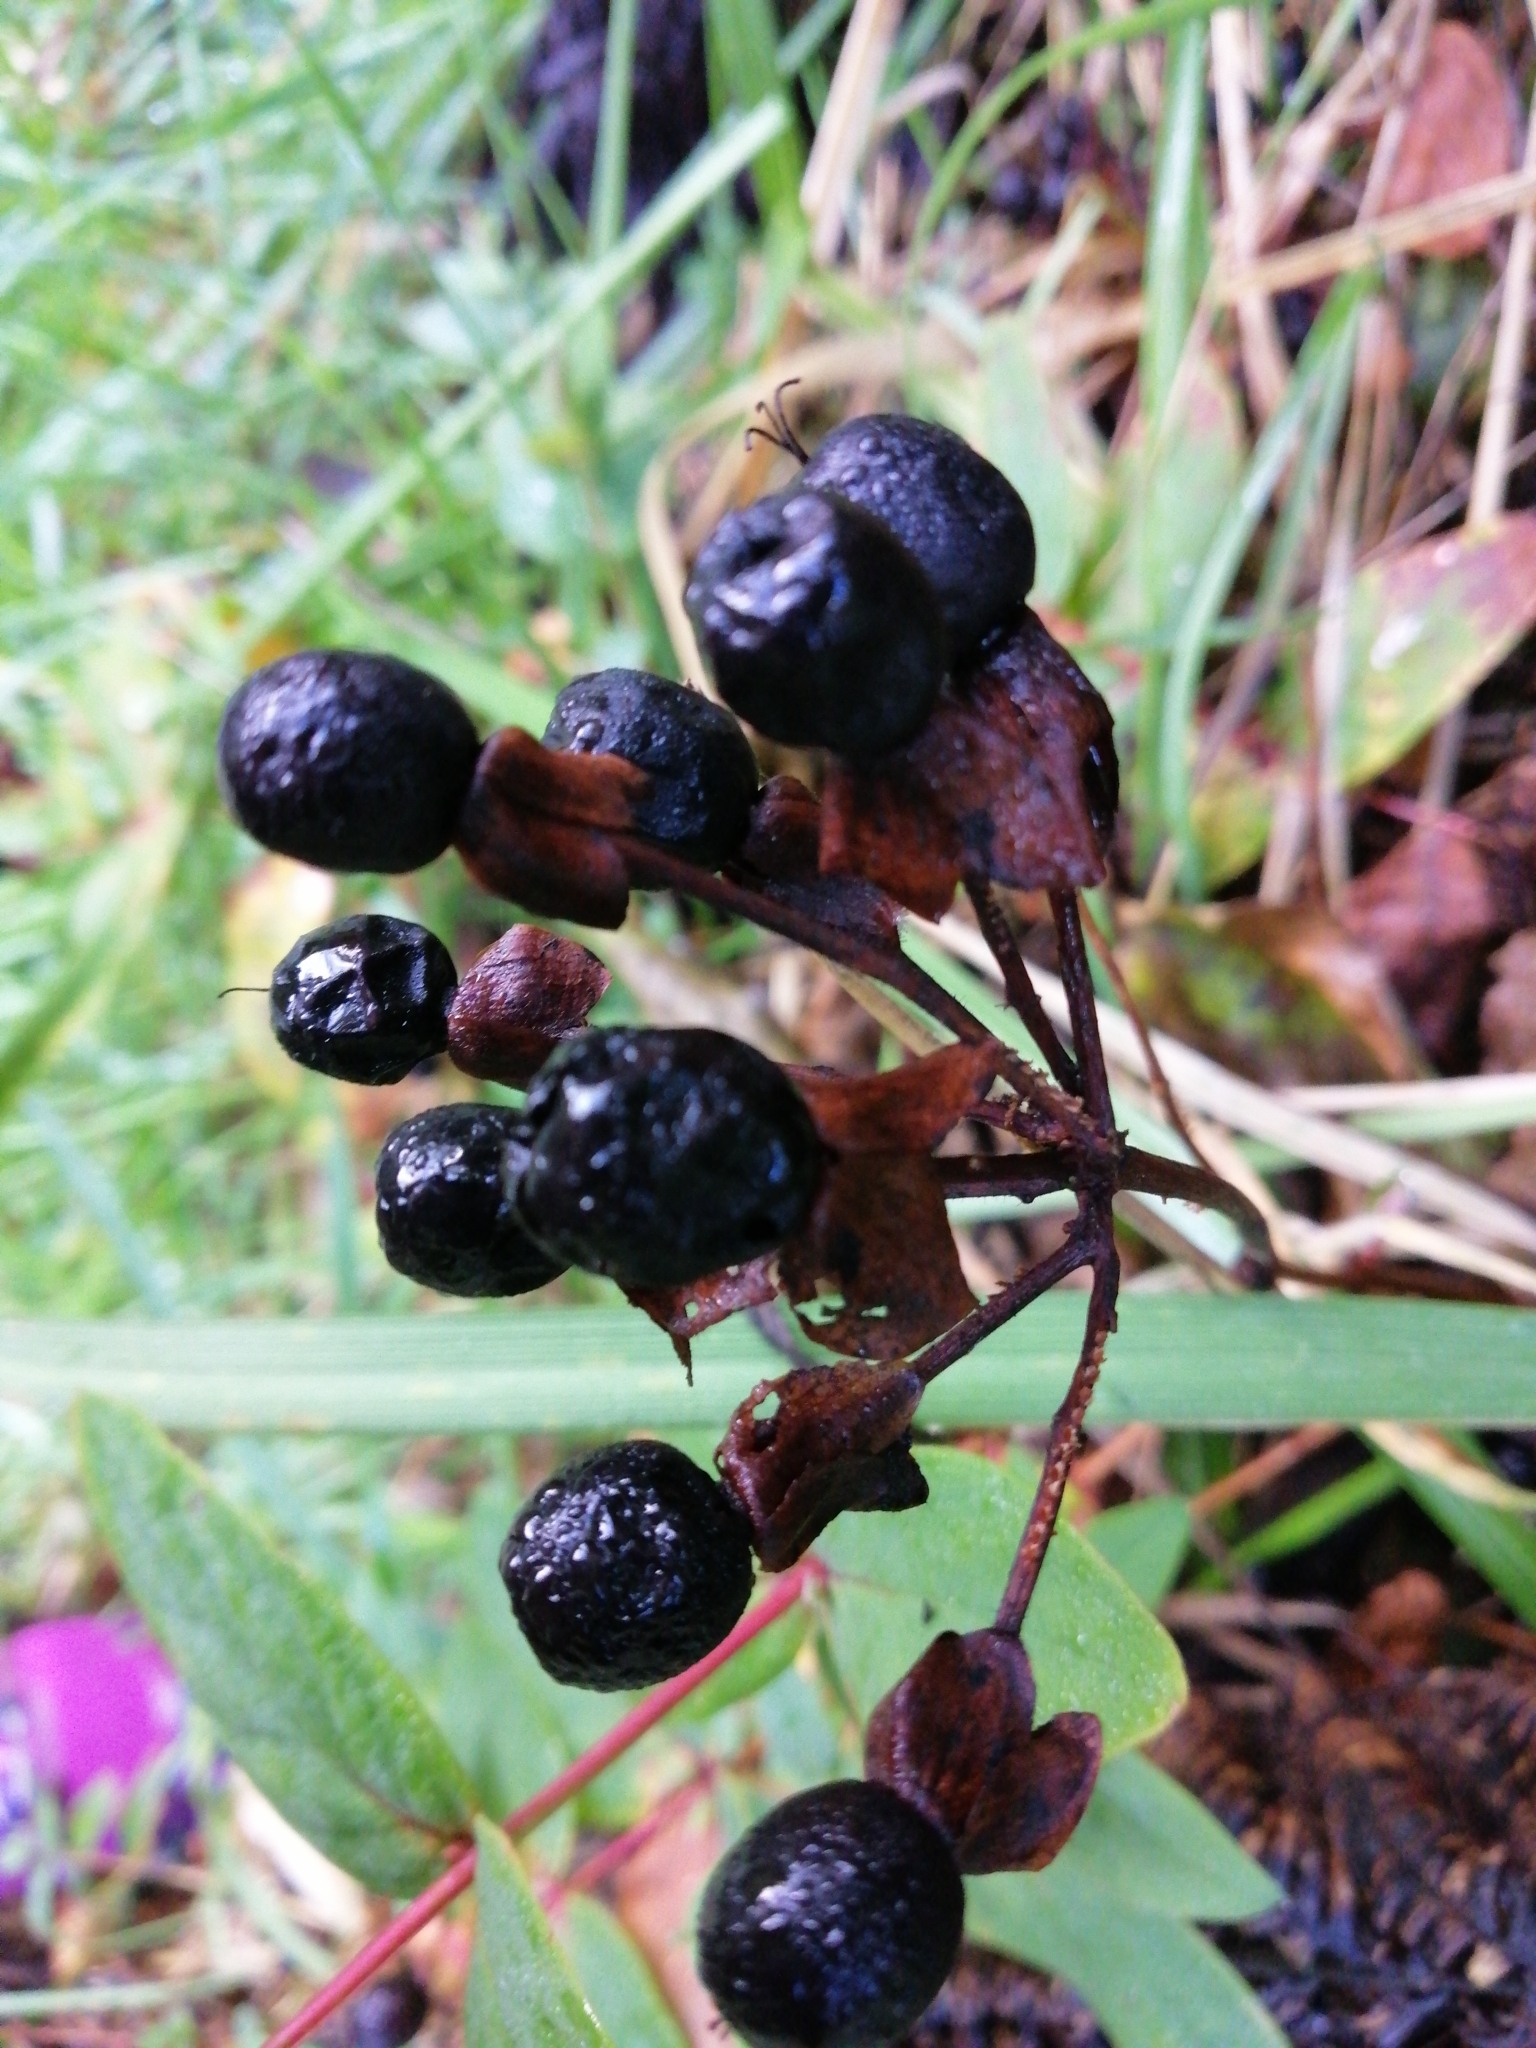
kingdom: Plantae
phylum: Tracheophyta
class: Magnoliopsida
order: Malpighiales
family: Hypericaceae
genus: Hypericum
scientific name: Hypericum androsaemum
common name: Sweet-amber
